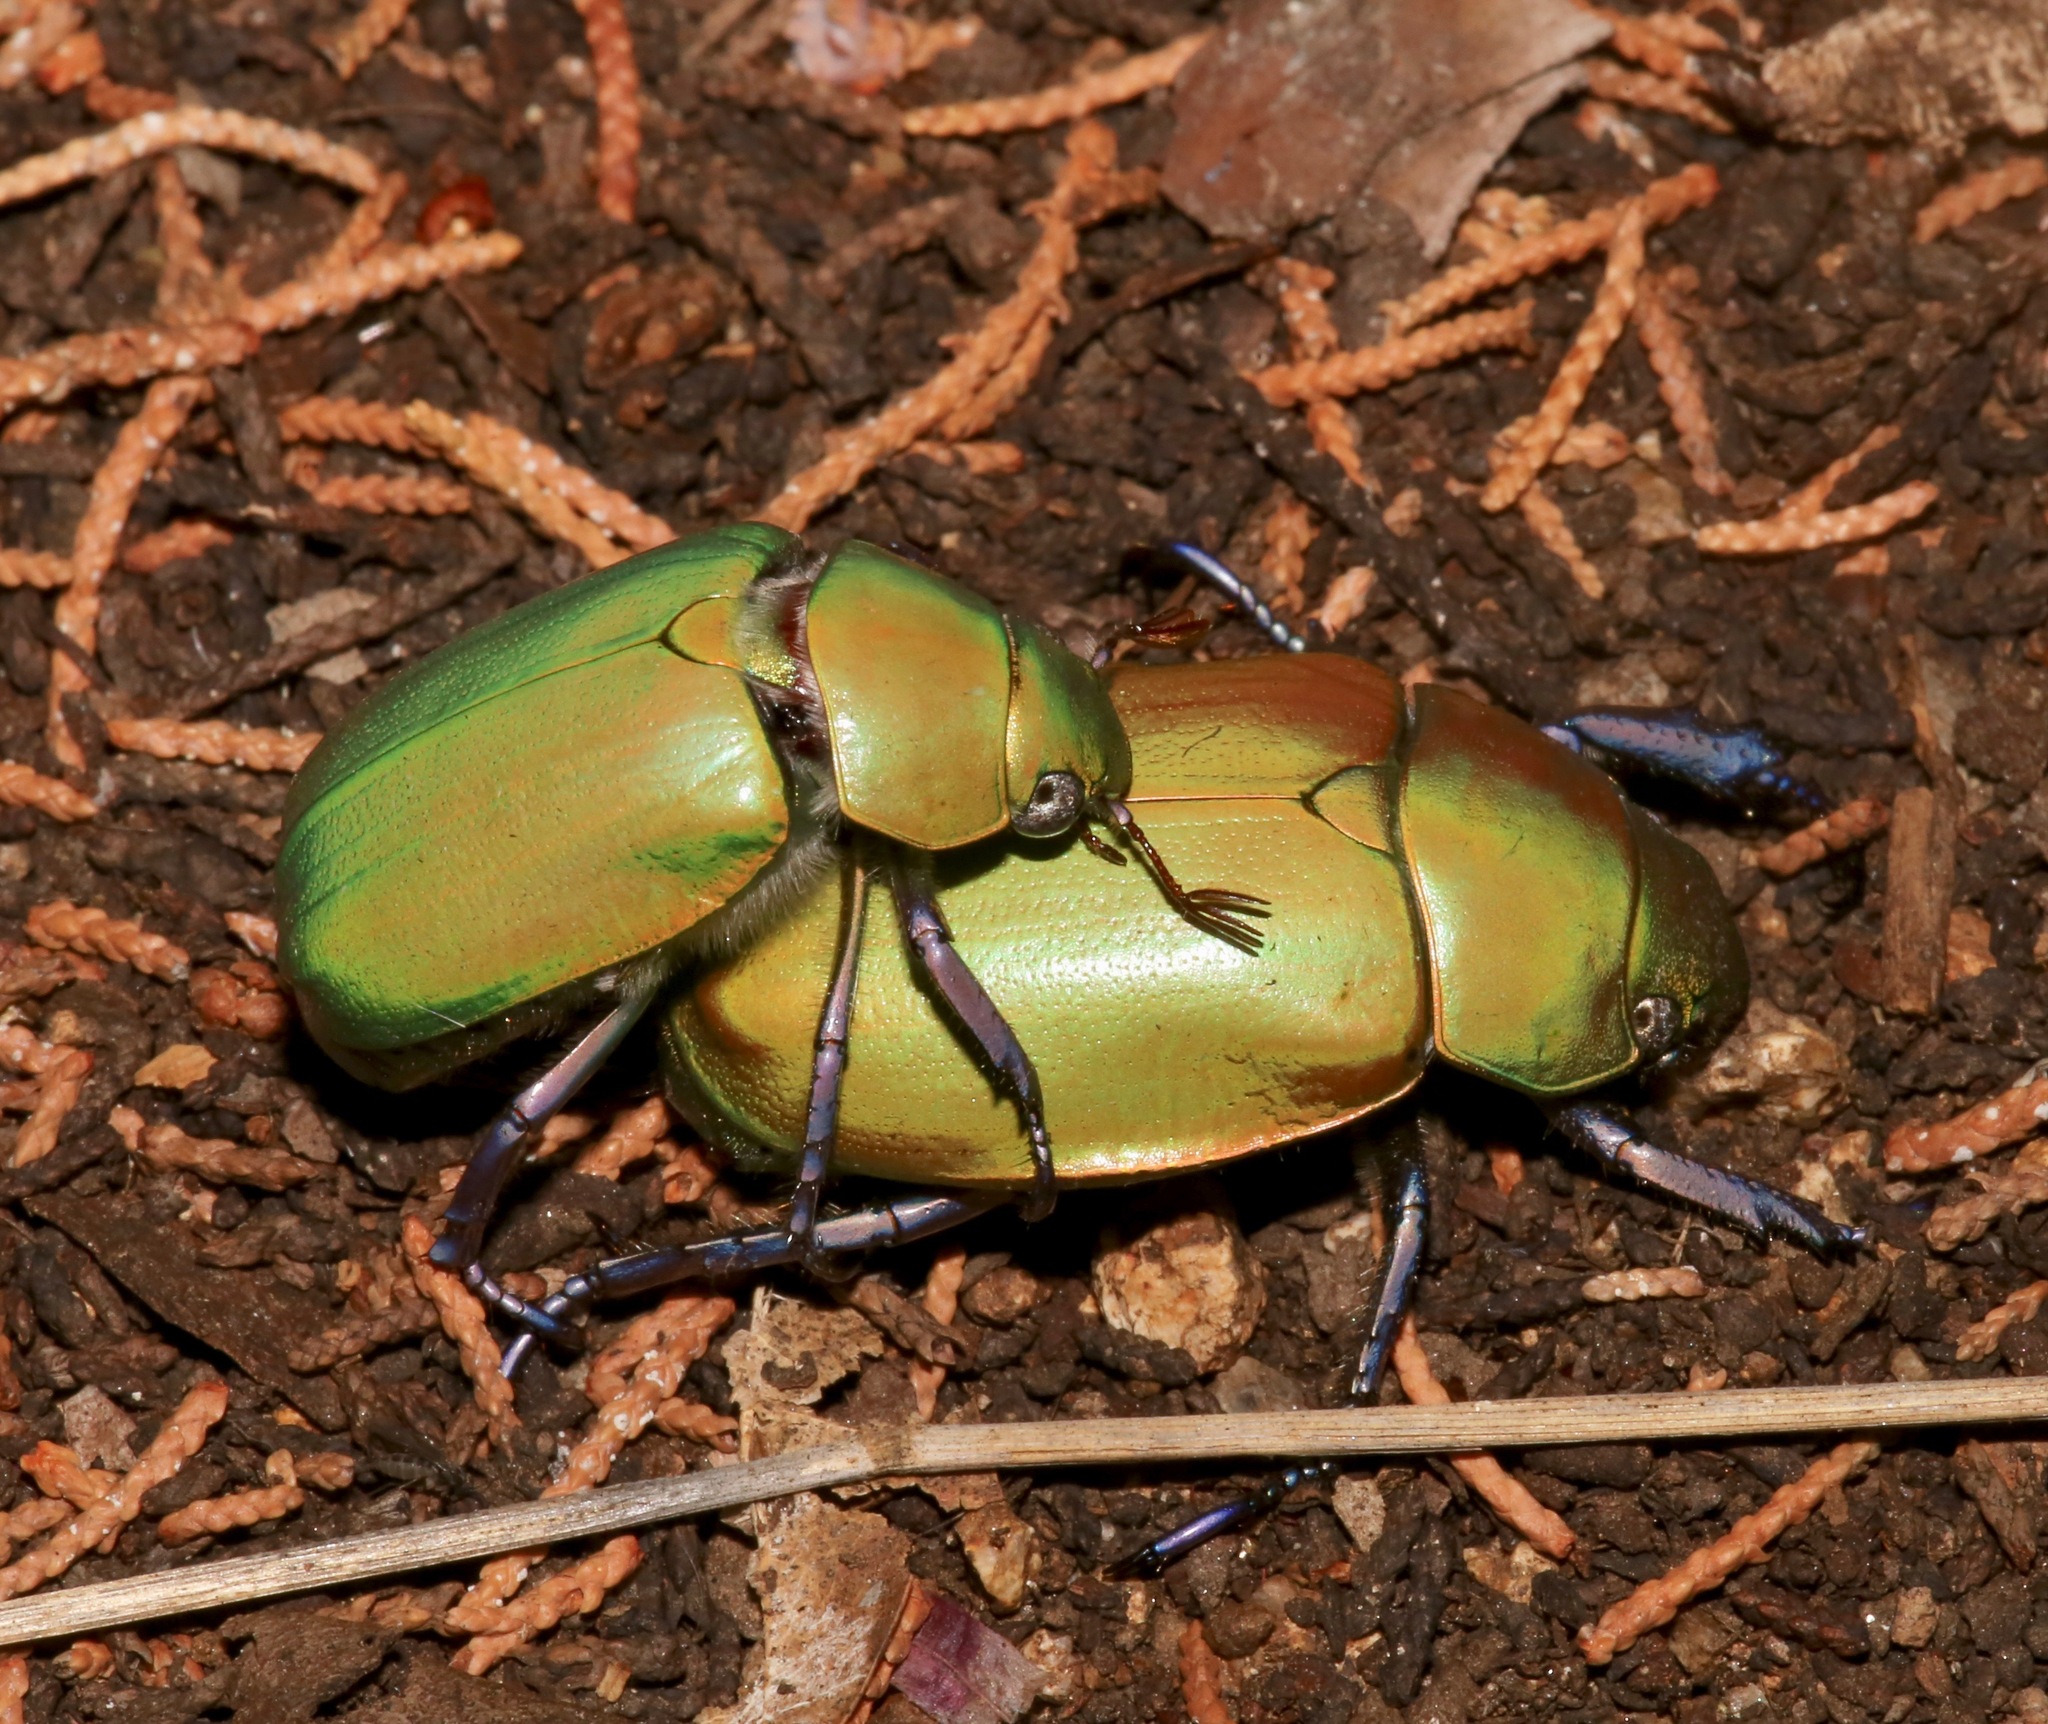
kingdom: Animalia
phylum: Arthropoda
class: Insecta
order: Coleoptera
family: Scarabaeidae
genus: Chrysina
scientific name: Chrysina beyeri
